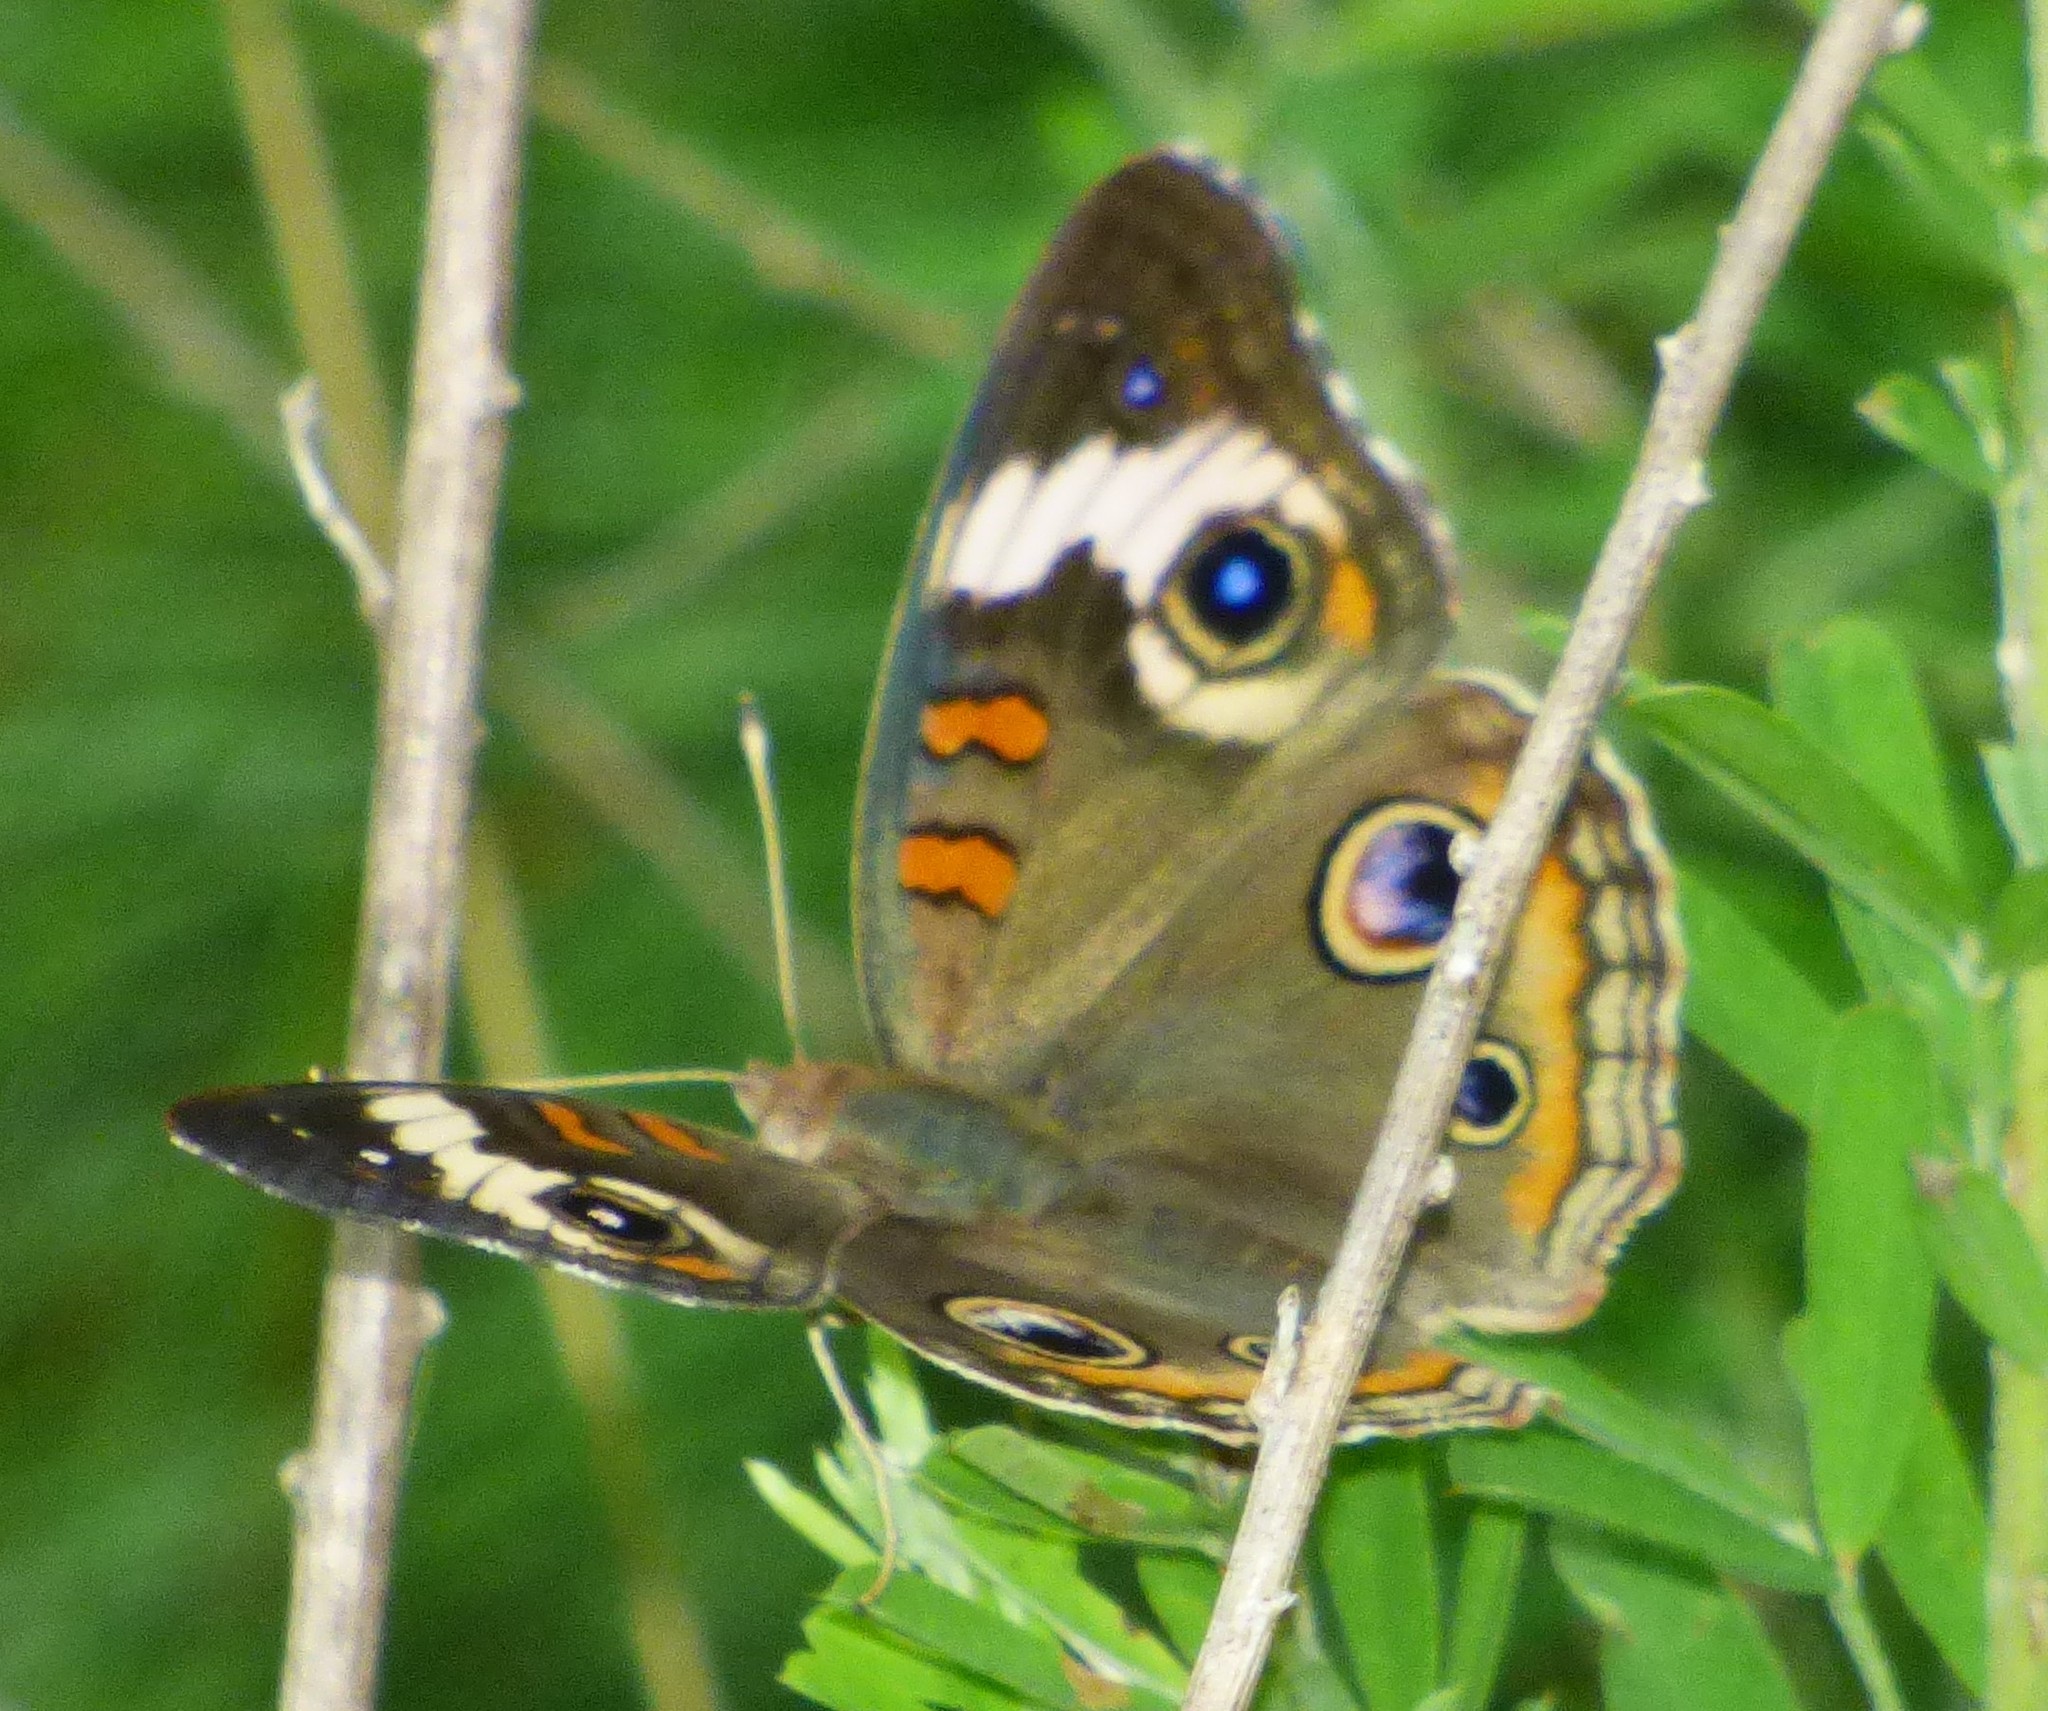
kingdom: Animalia
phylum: Arthropoda
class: Insecta
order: Lepidoptera
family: Nymphalidae
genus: Junonia
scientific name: Junonia coenia
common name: Common buckeye
